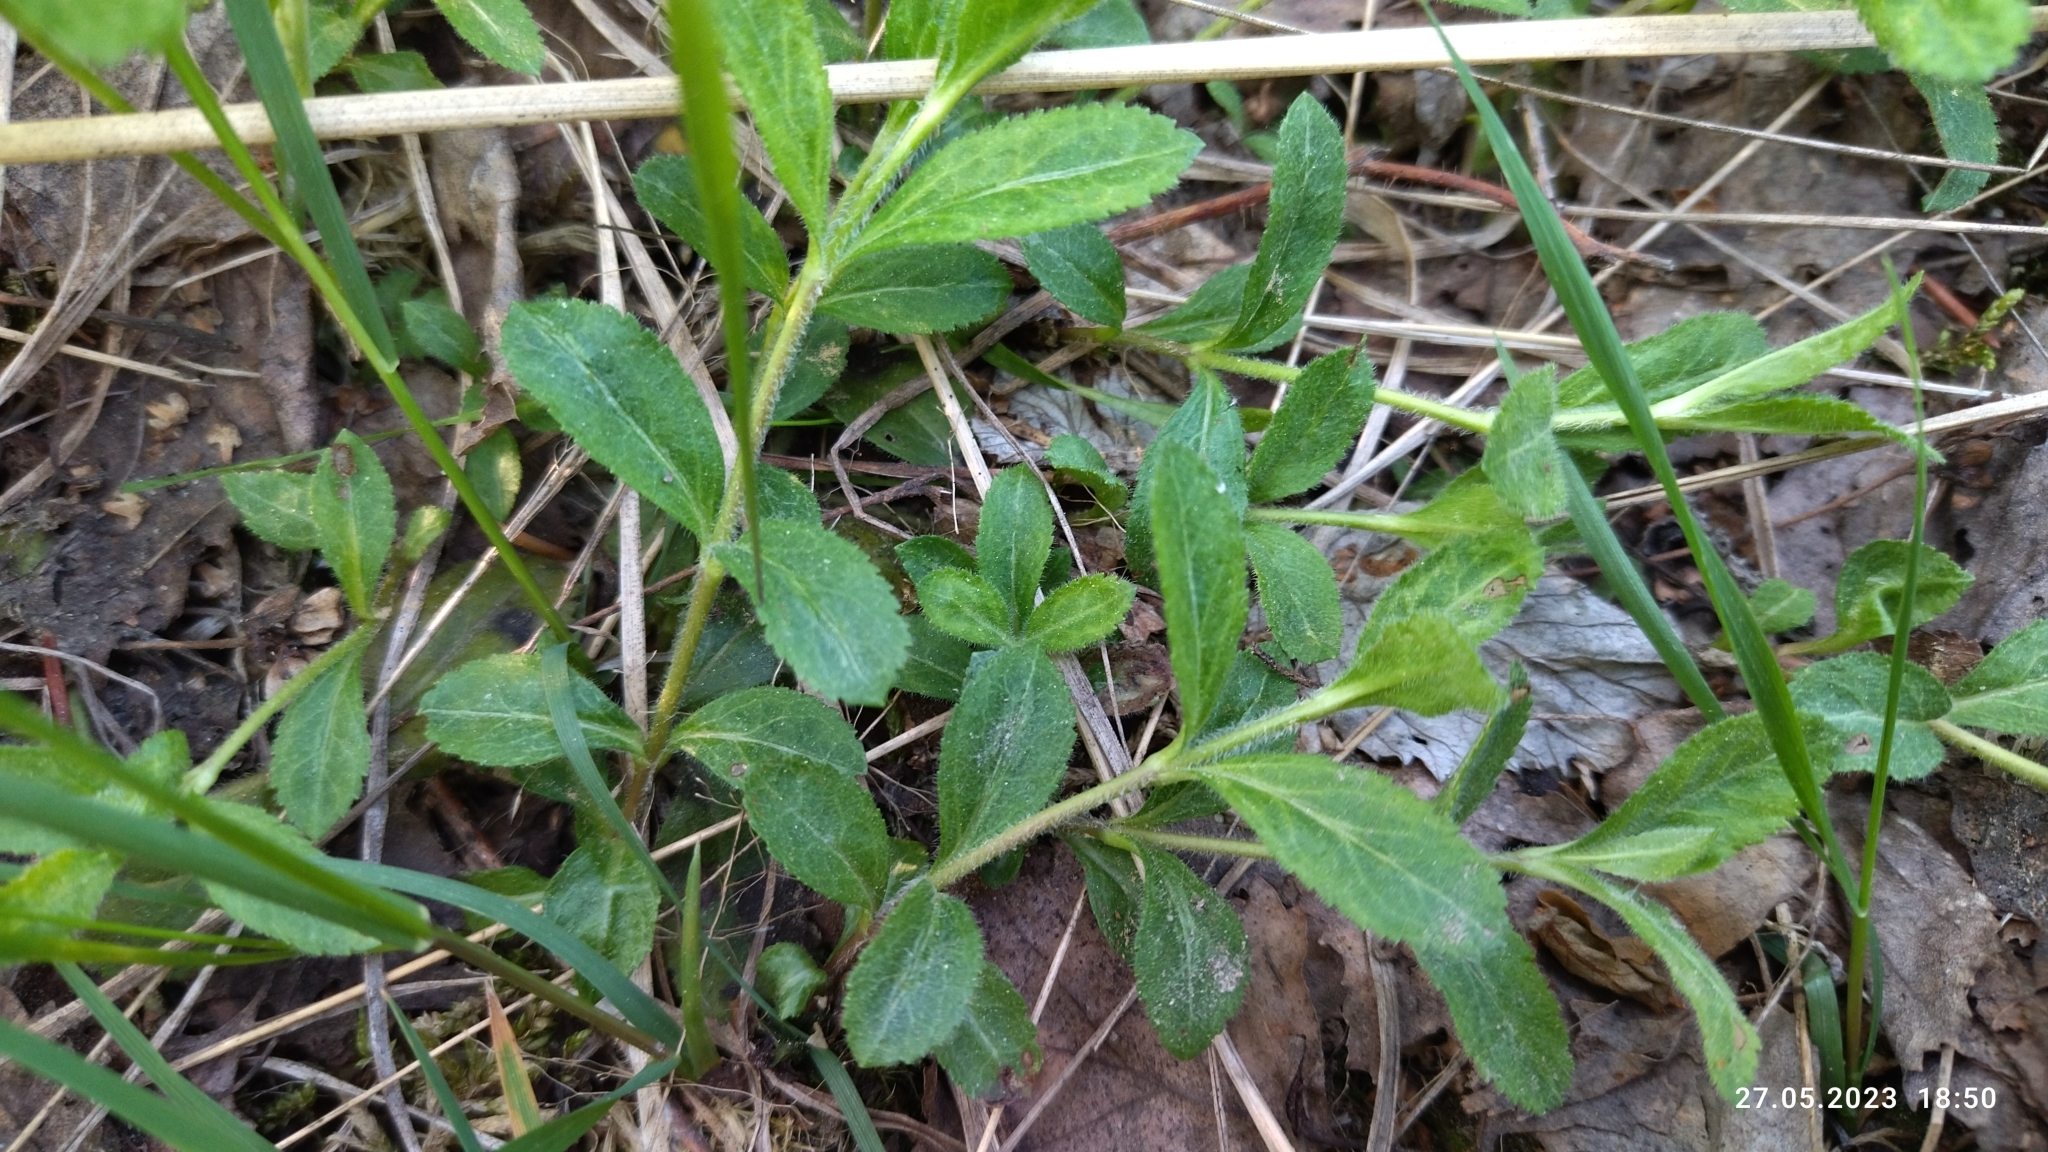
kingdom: Plantae
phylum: Tracheophyta
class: Magnoliopsida
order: Lamiales
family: Plantaginaceae
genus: Veronica
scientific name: Veronica officinalis
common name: Common speedwell
